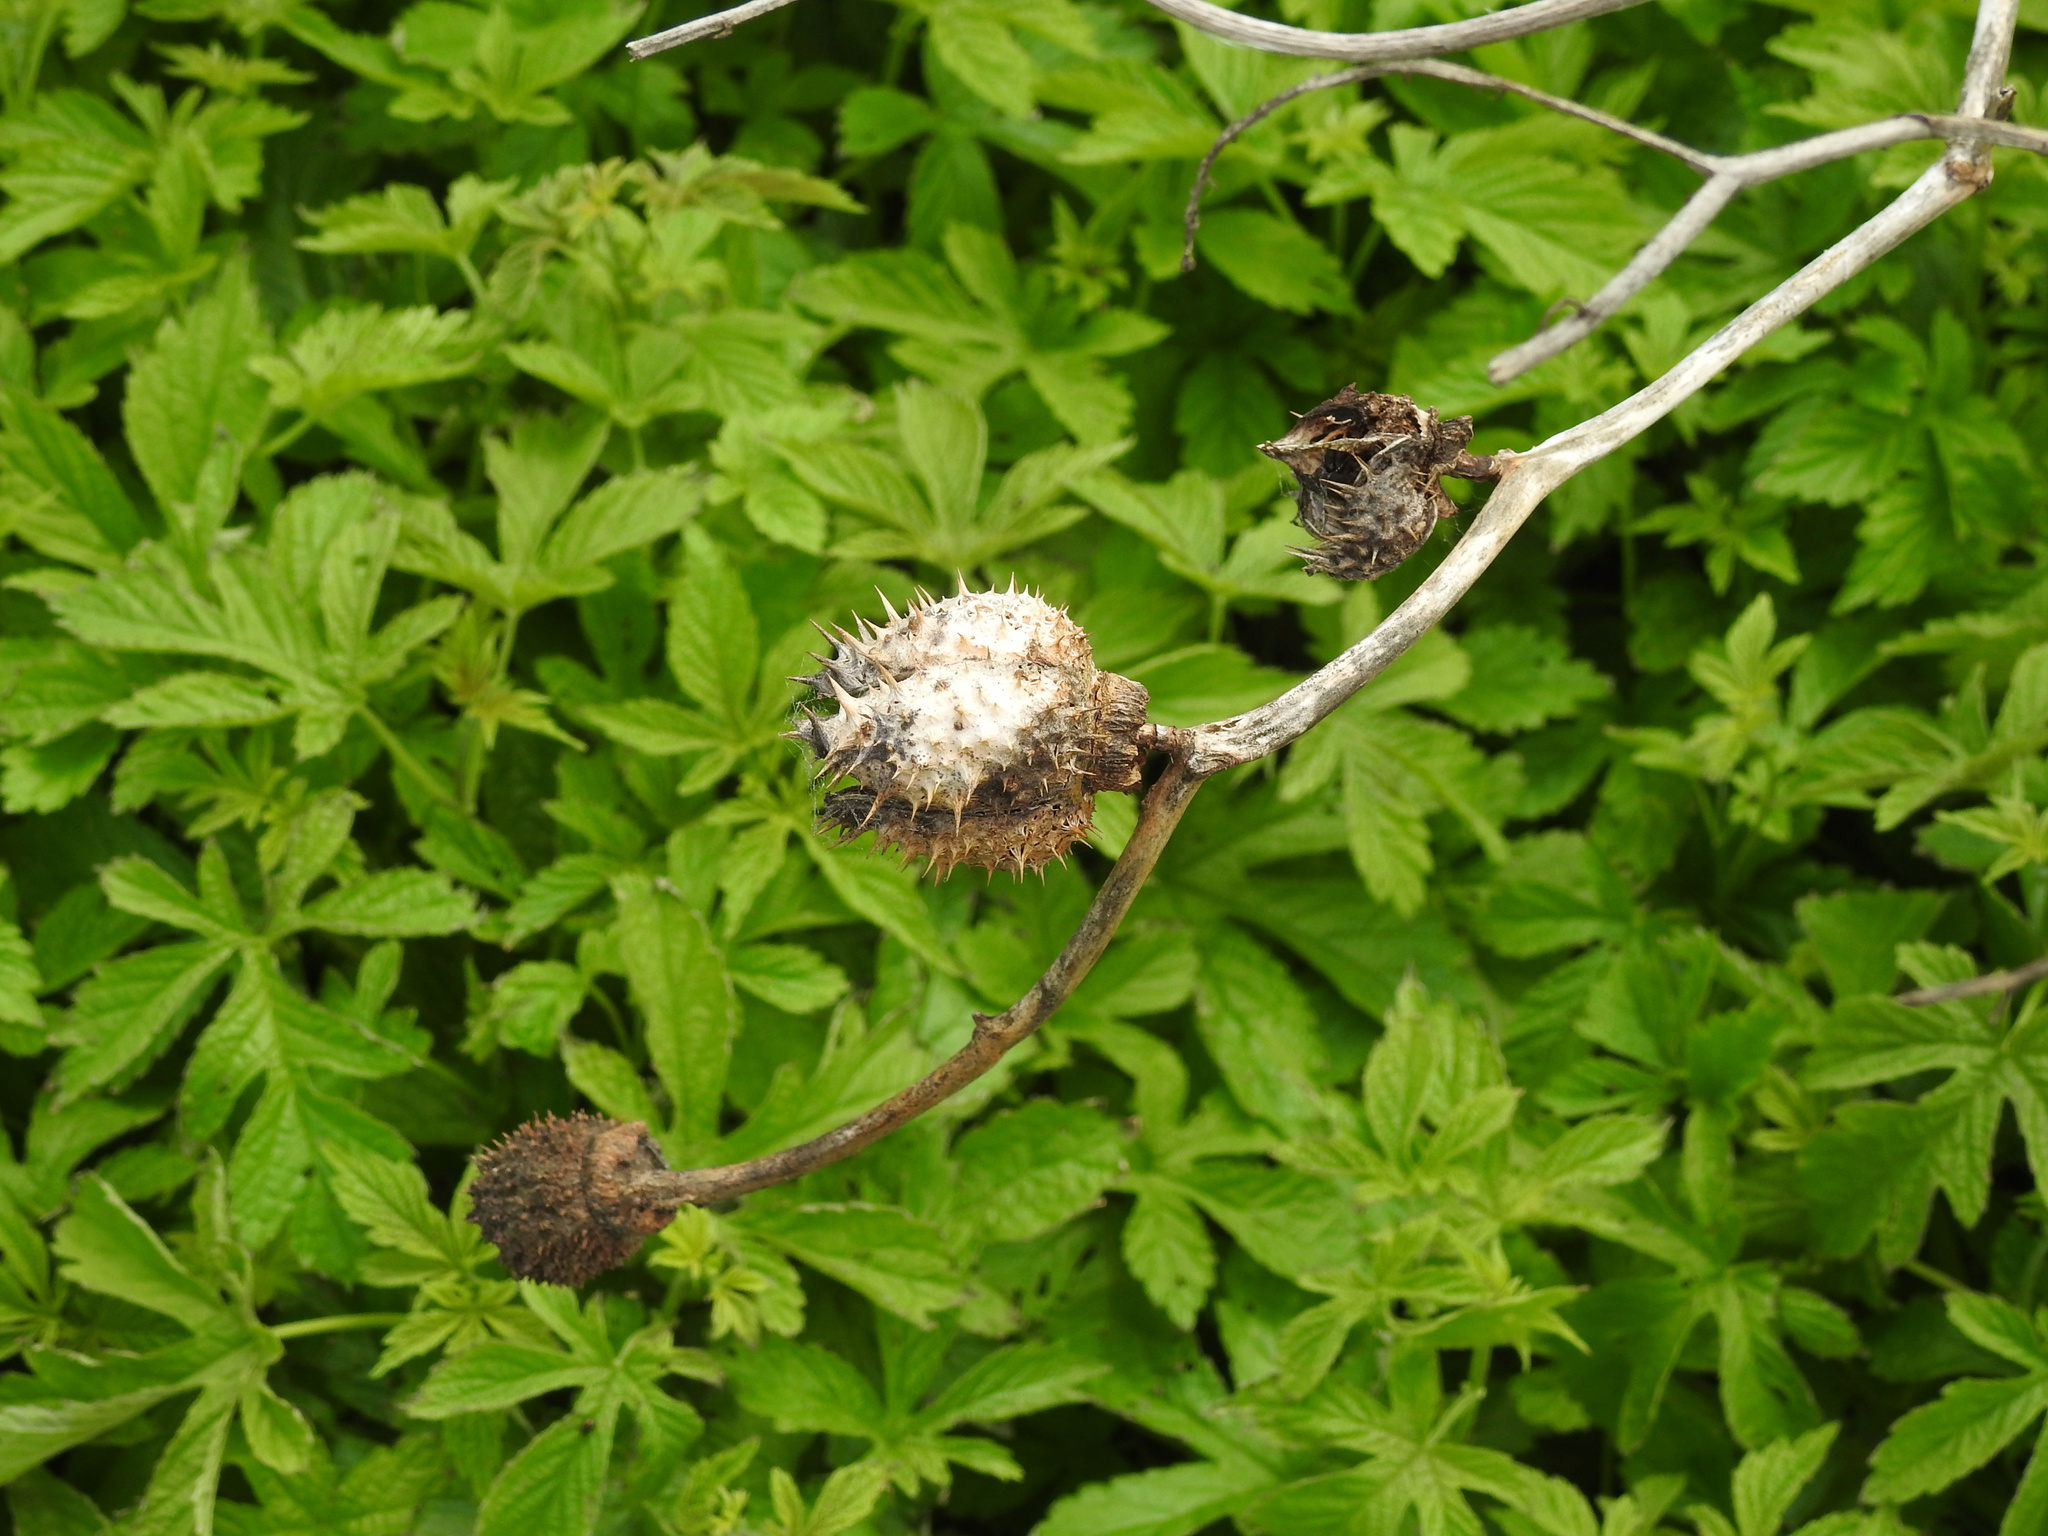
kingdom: Plantae
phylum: Tracheophyta
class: Magnoliopsida
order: Solanales
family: Solanaceae
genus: Datura
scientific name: Datura stramonium
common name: Thorn-apple
